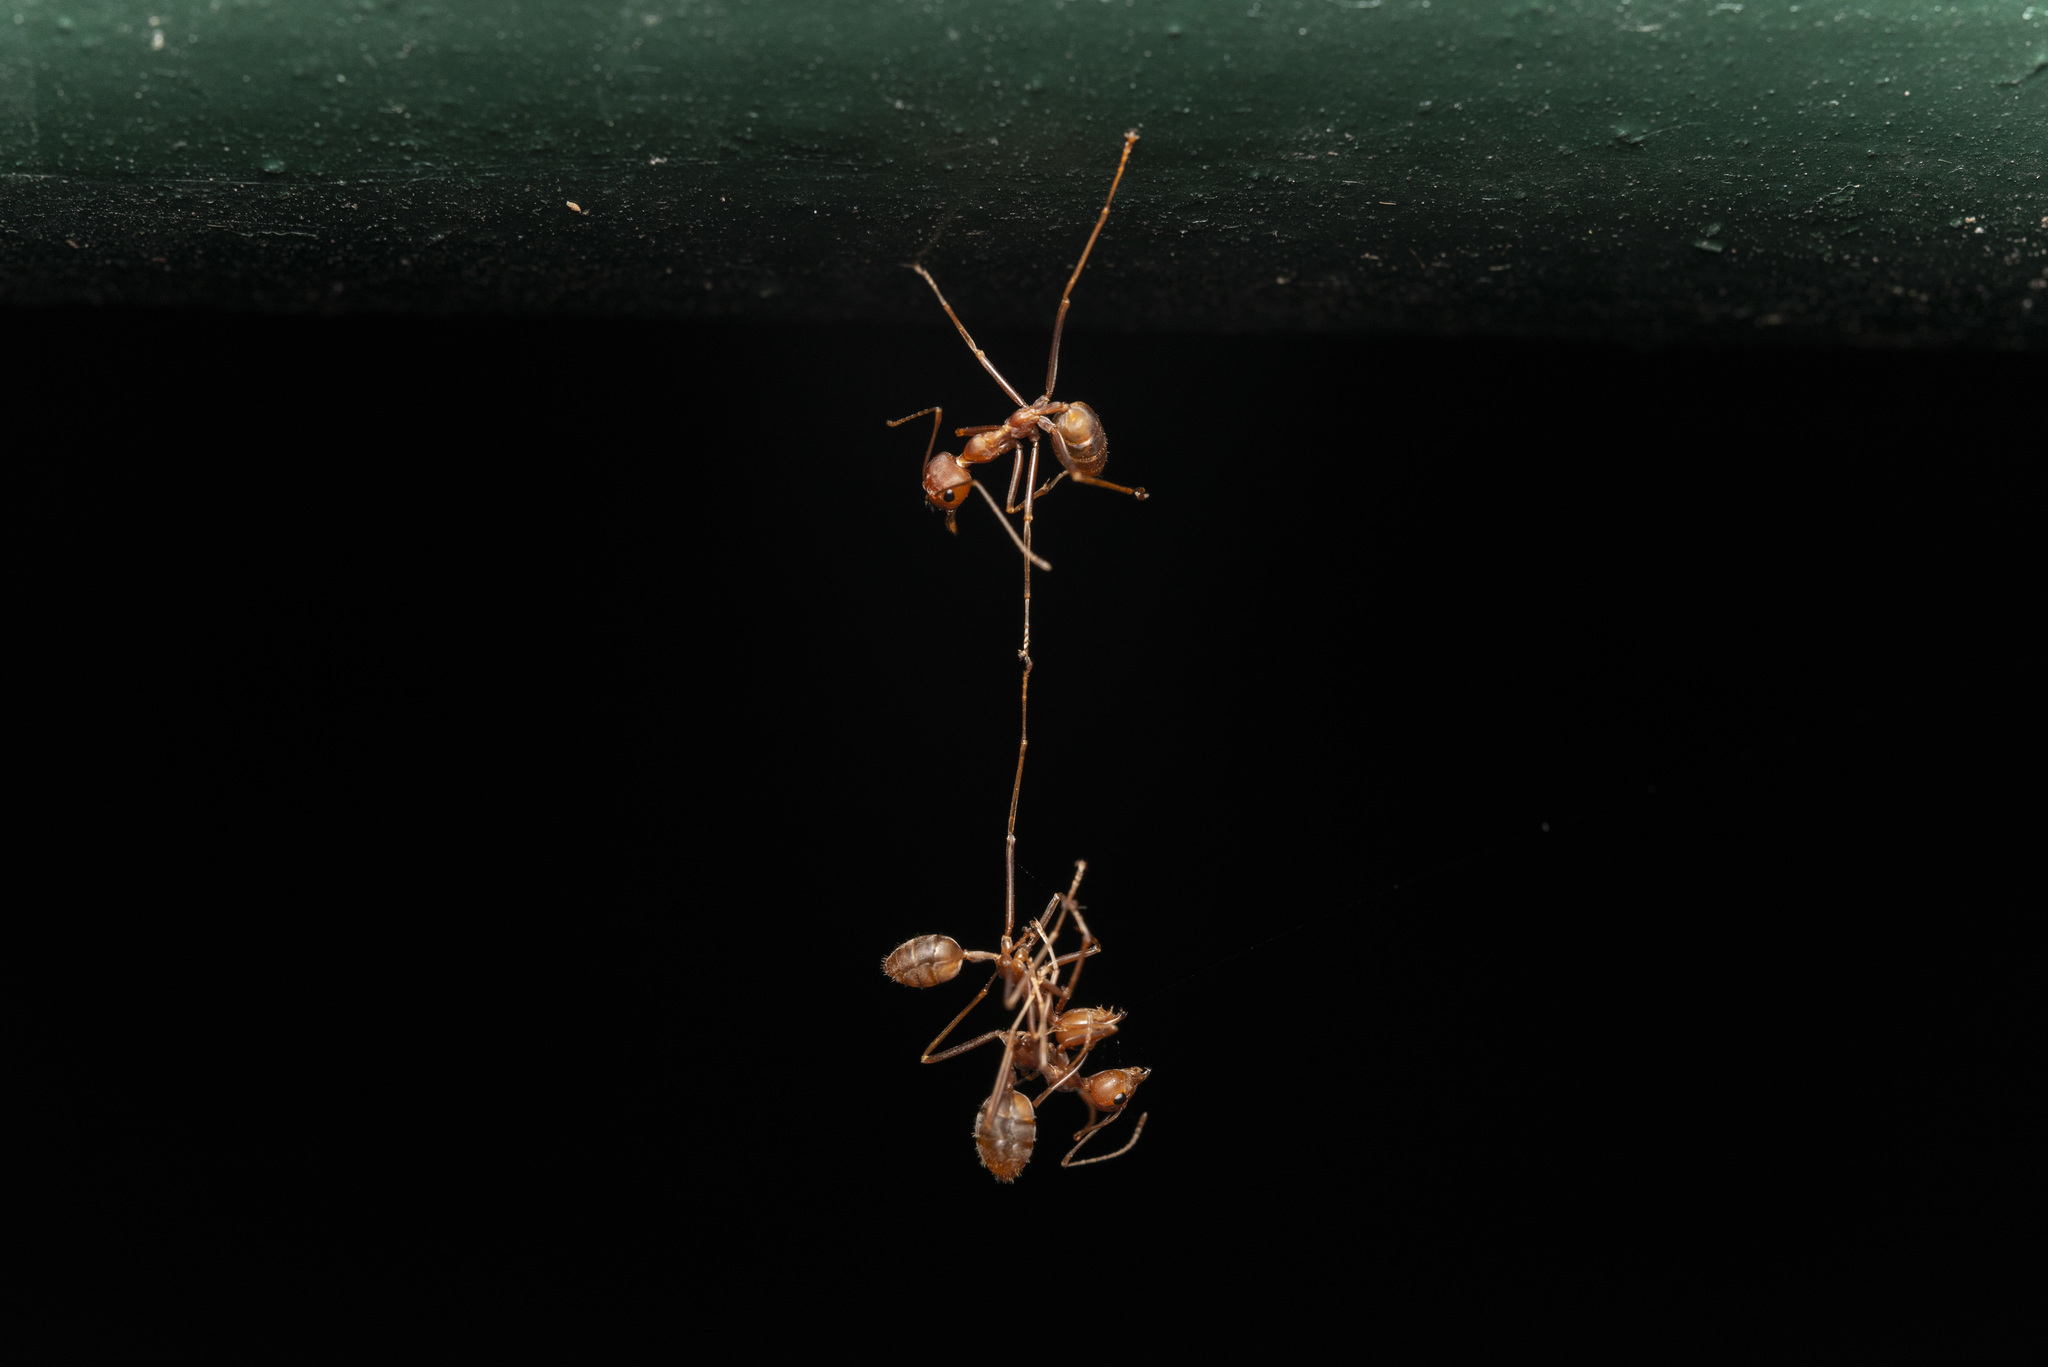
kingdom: Animalia
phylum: Arthropoda
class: Insecta
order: Hymenoptera
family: Formicidae
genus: Oecophylla
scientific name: Oecophylla smaragdina
